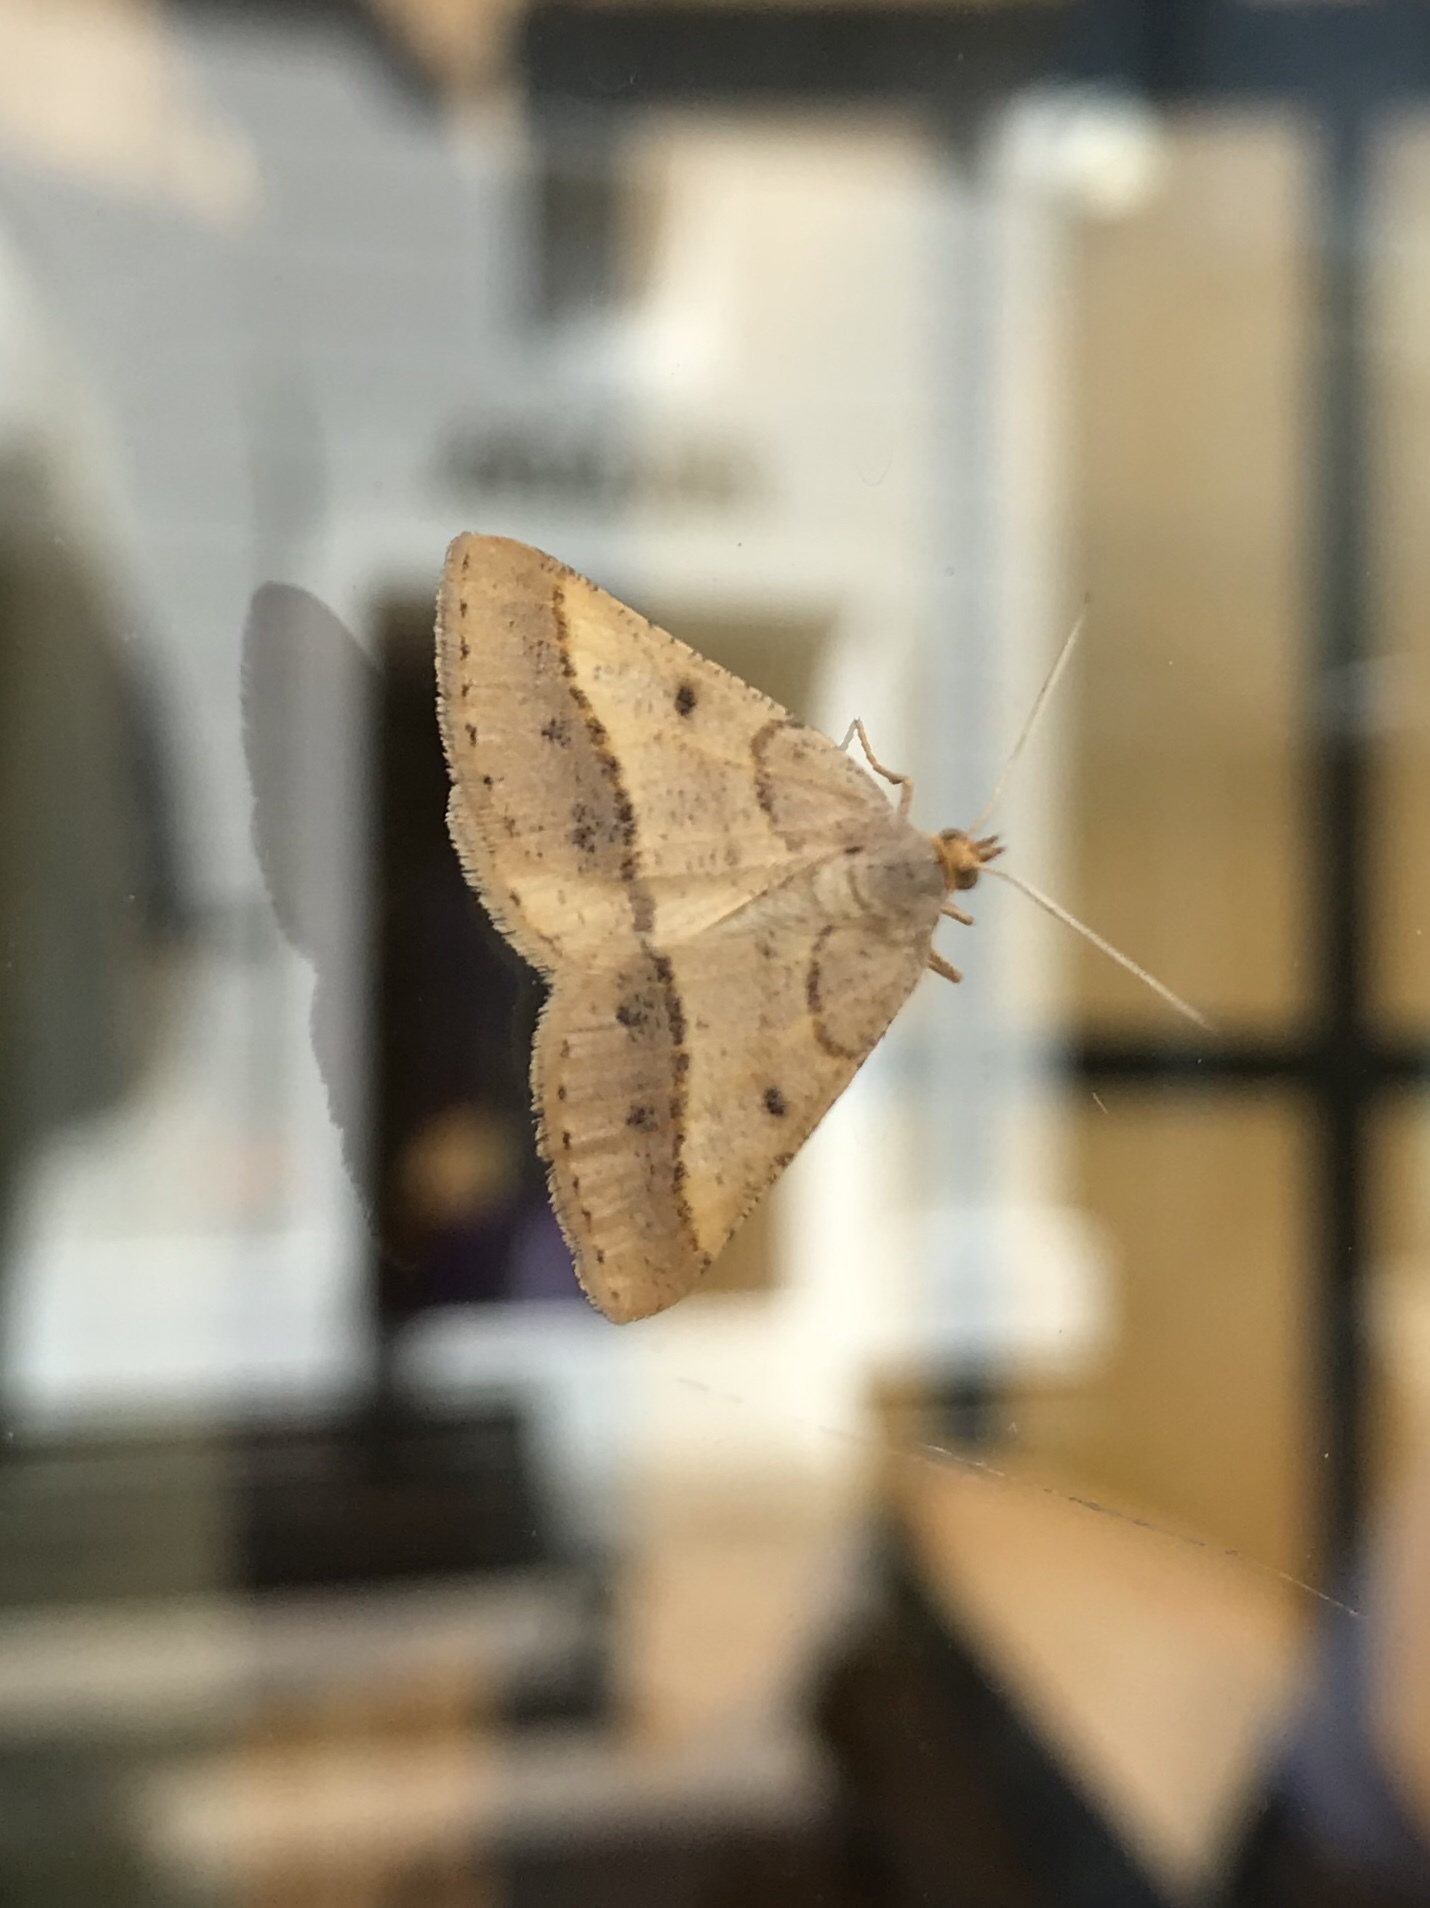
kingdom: Animalia
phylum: Arthropoda
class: Insecta
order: Lepidoptera
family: Geometridae
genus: Tephrina
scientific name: Tephrina arenacearia
